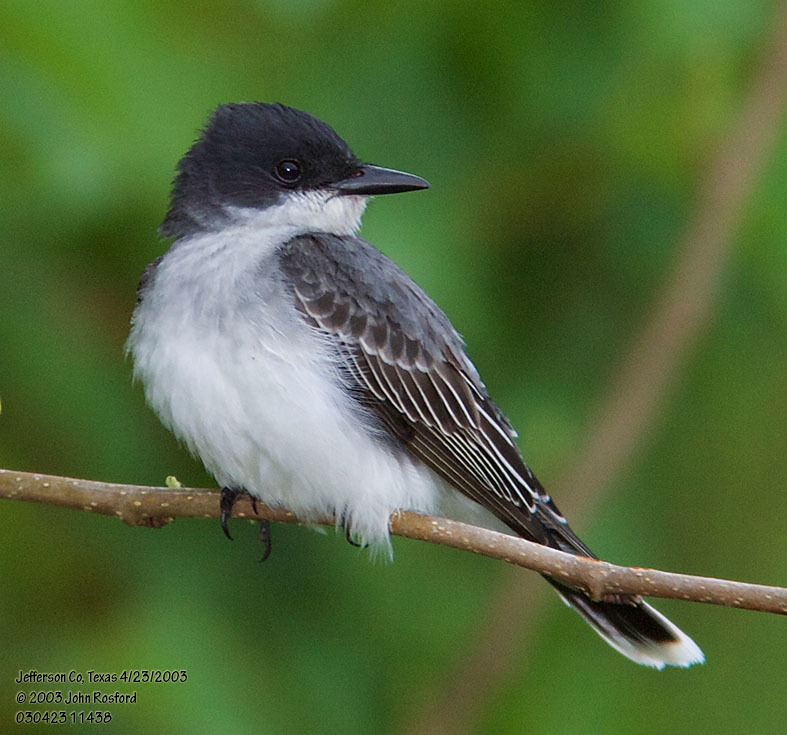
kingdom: Animalia
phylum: Chordata
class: Aves
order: Passeriformes
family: Tyrannidae
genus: Tyrannus
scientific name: Tyrannus tyrannus
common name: Eastern kingbird
